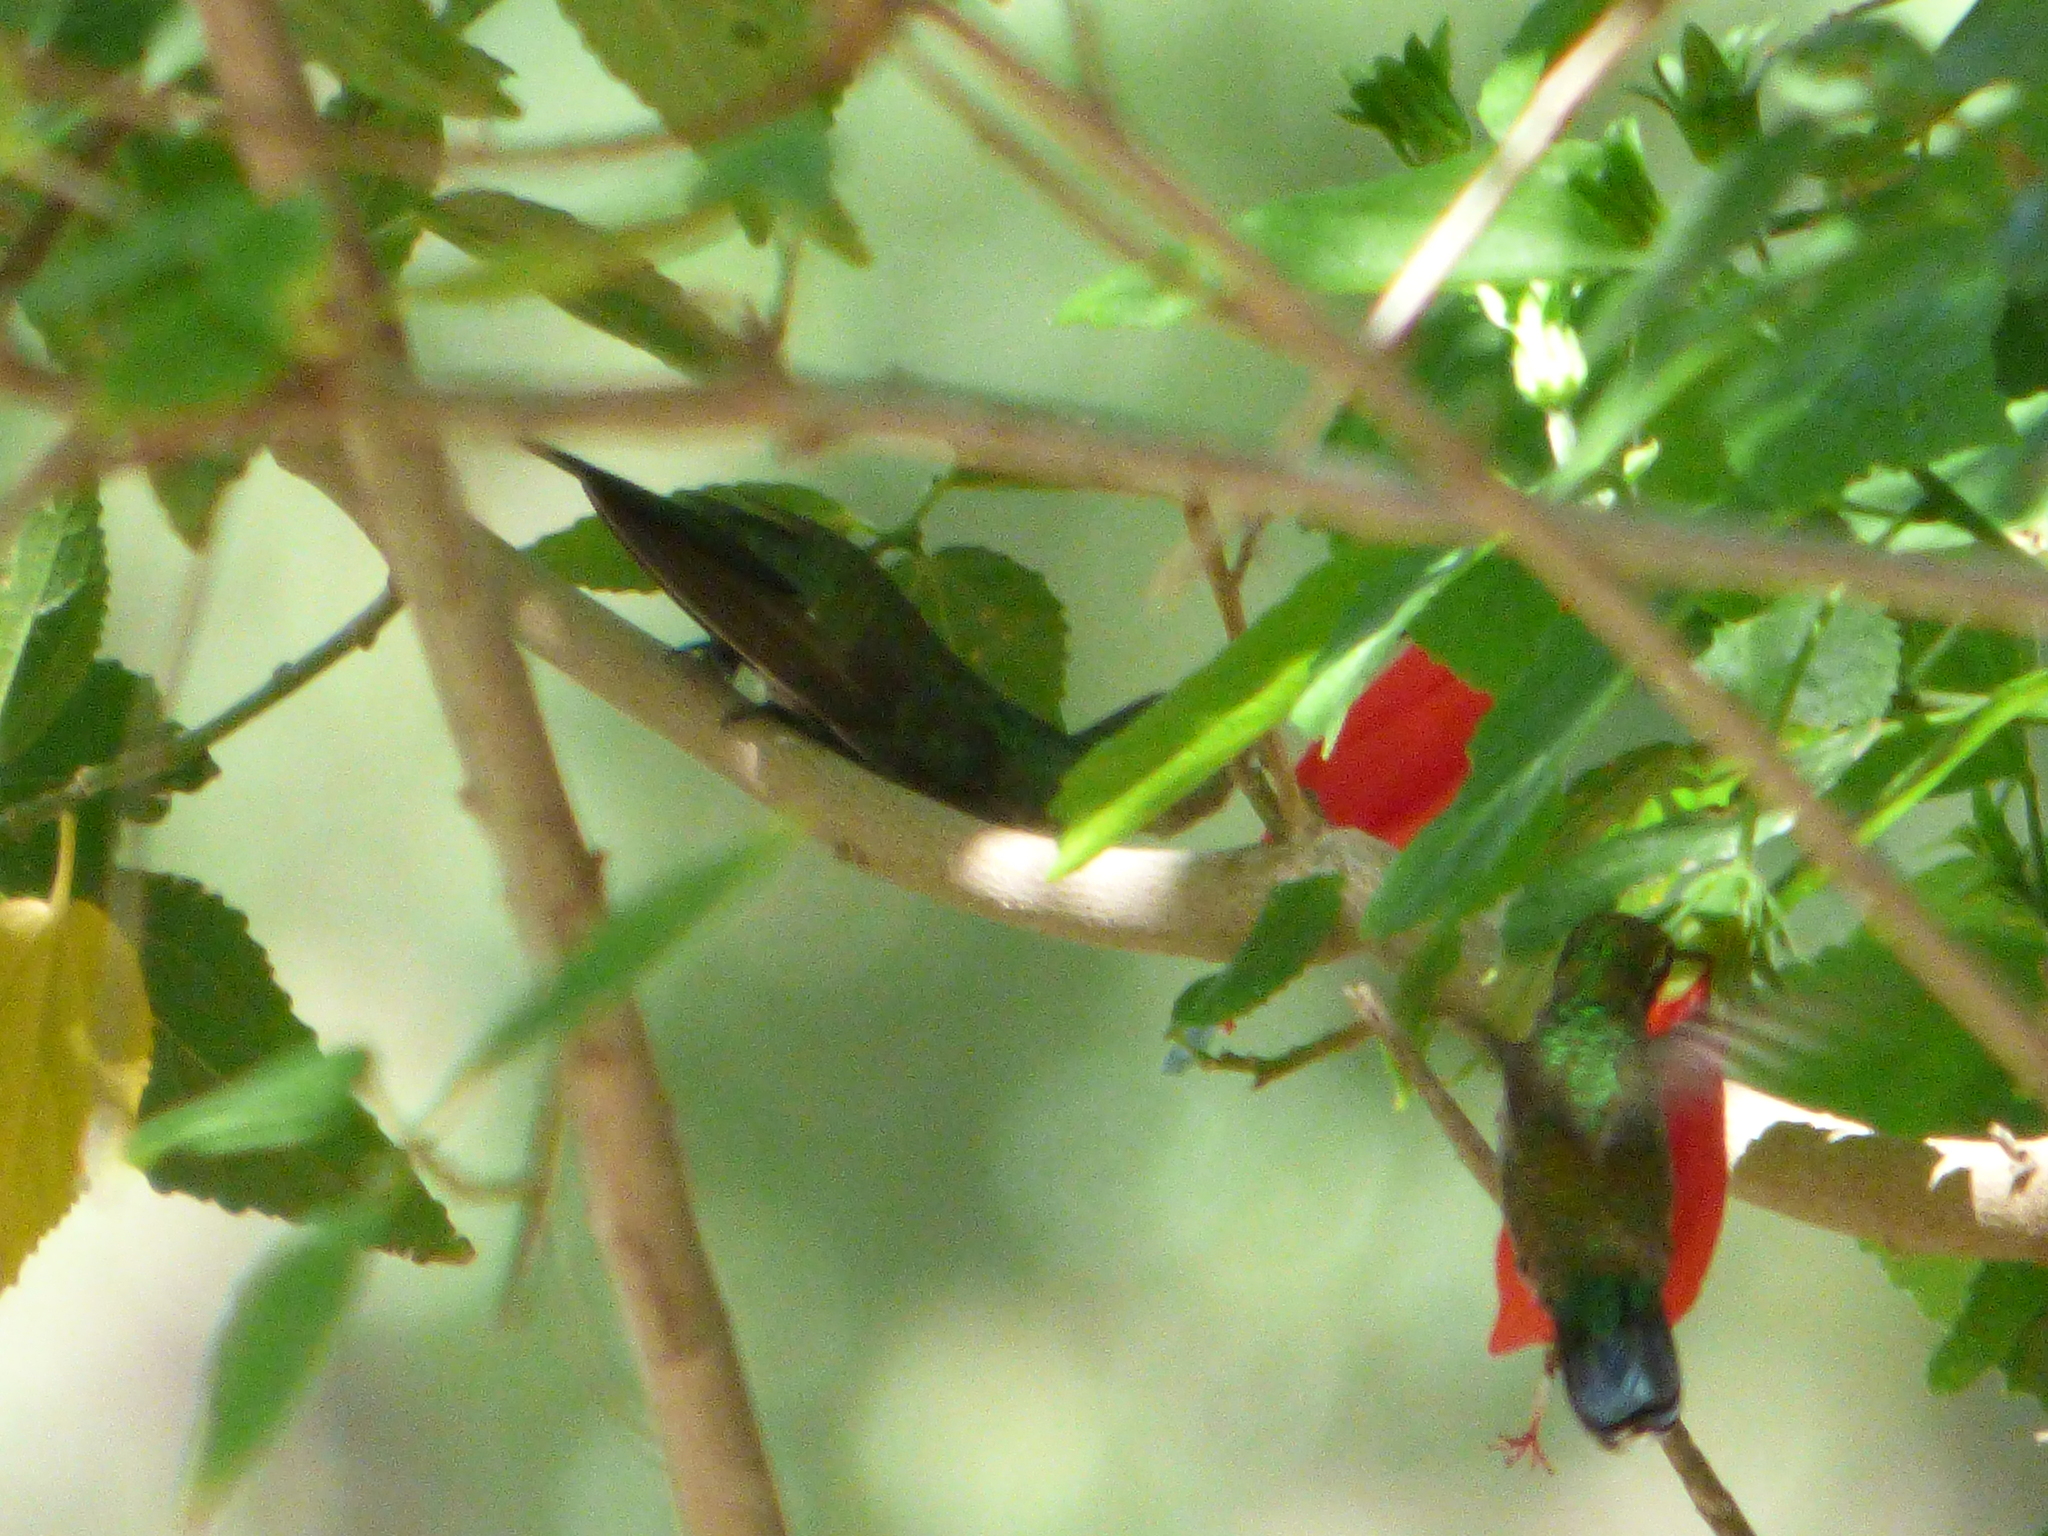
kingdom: Animalia
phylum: Chordata
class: Aves
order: Apodiformes
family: Trochilidae
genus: Chlorostilbon
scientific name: Chlorostilbon lucidus
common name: Glittering-bellied emerald
